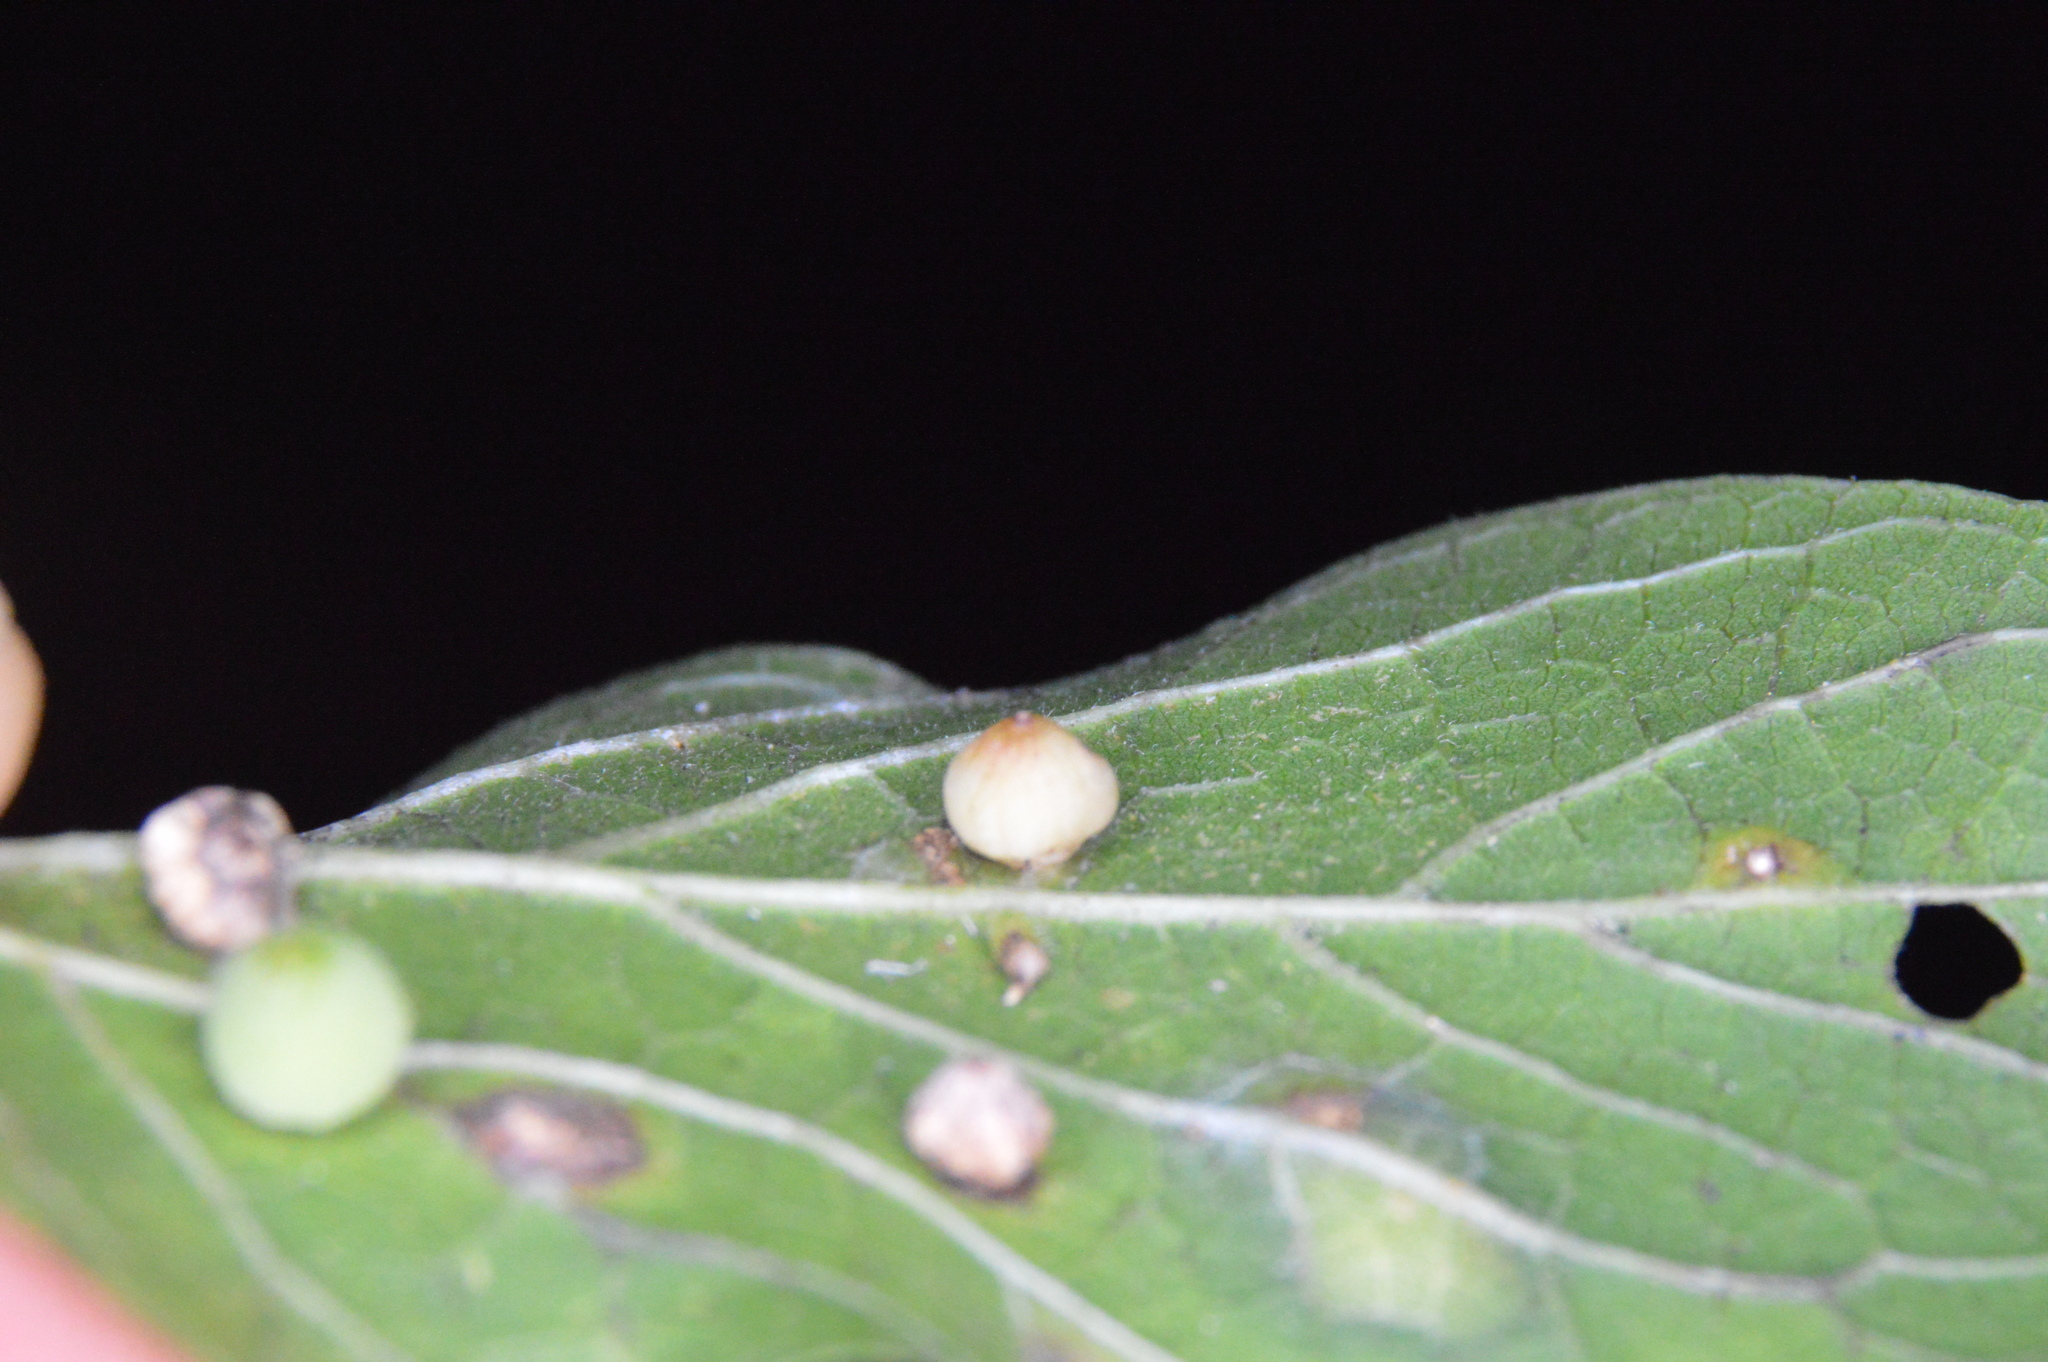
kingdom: Animalia
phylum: Arthropoda
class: Insecta
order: Diptera
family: Cecidomyiidae
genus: Celticecis
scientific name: Celticecis globosa
